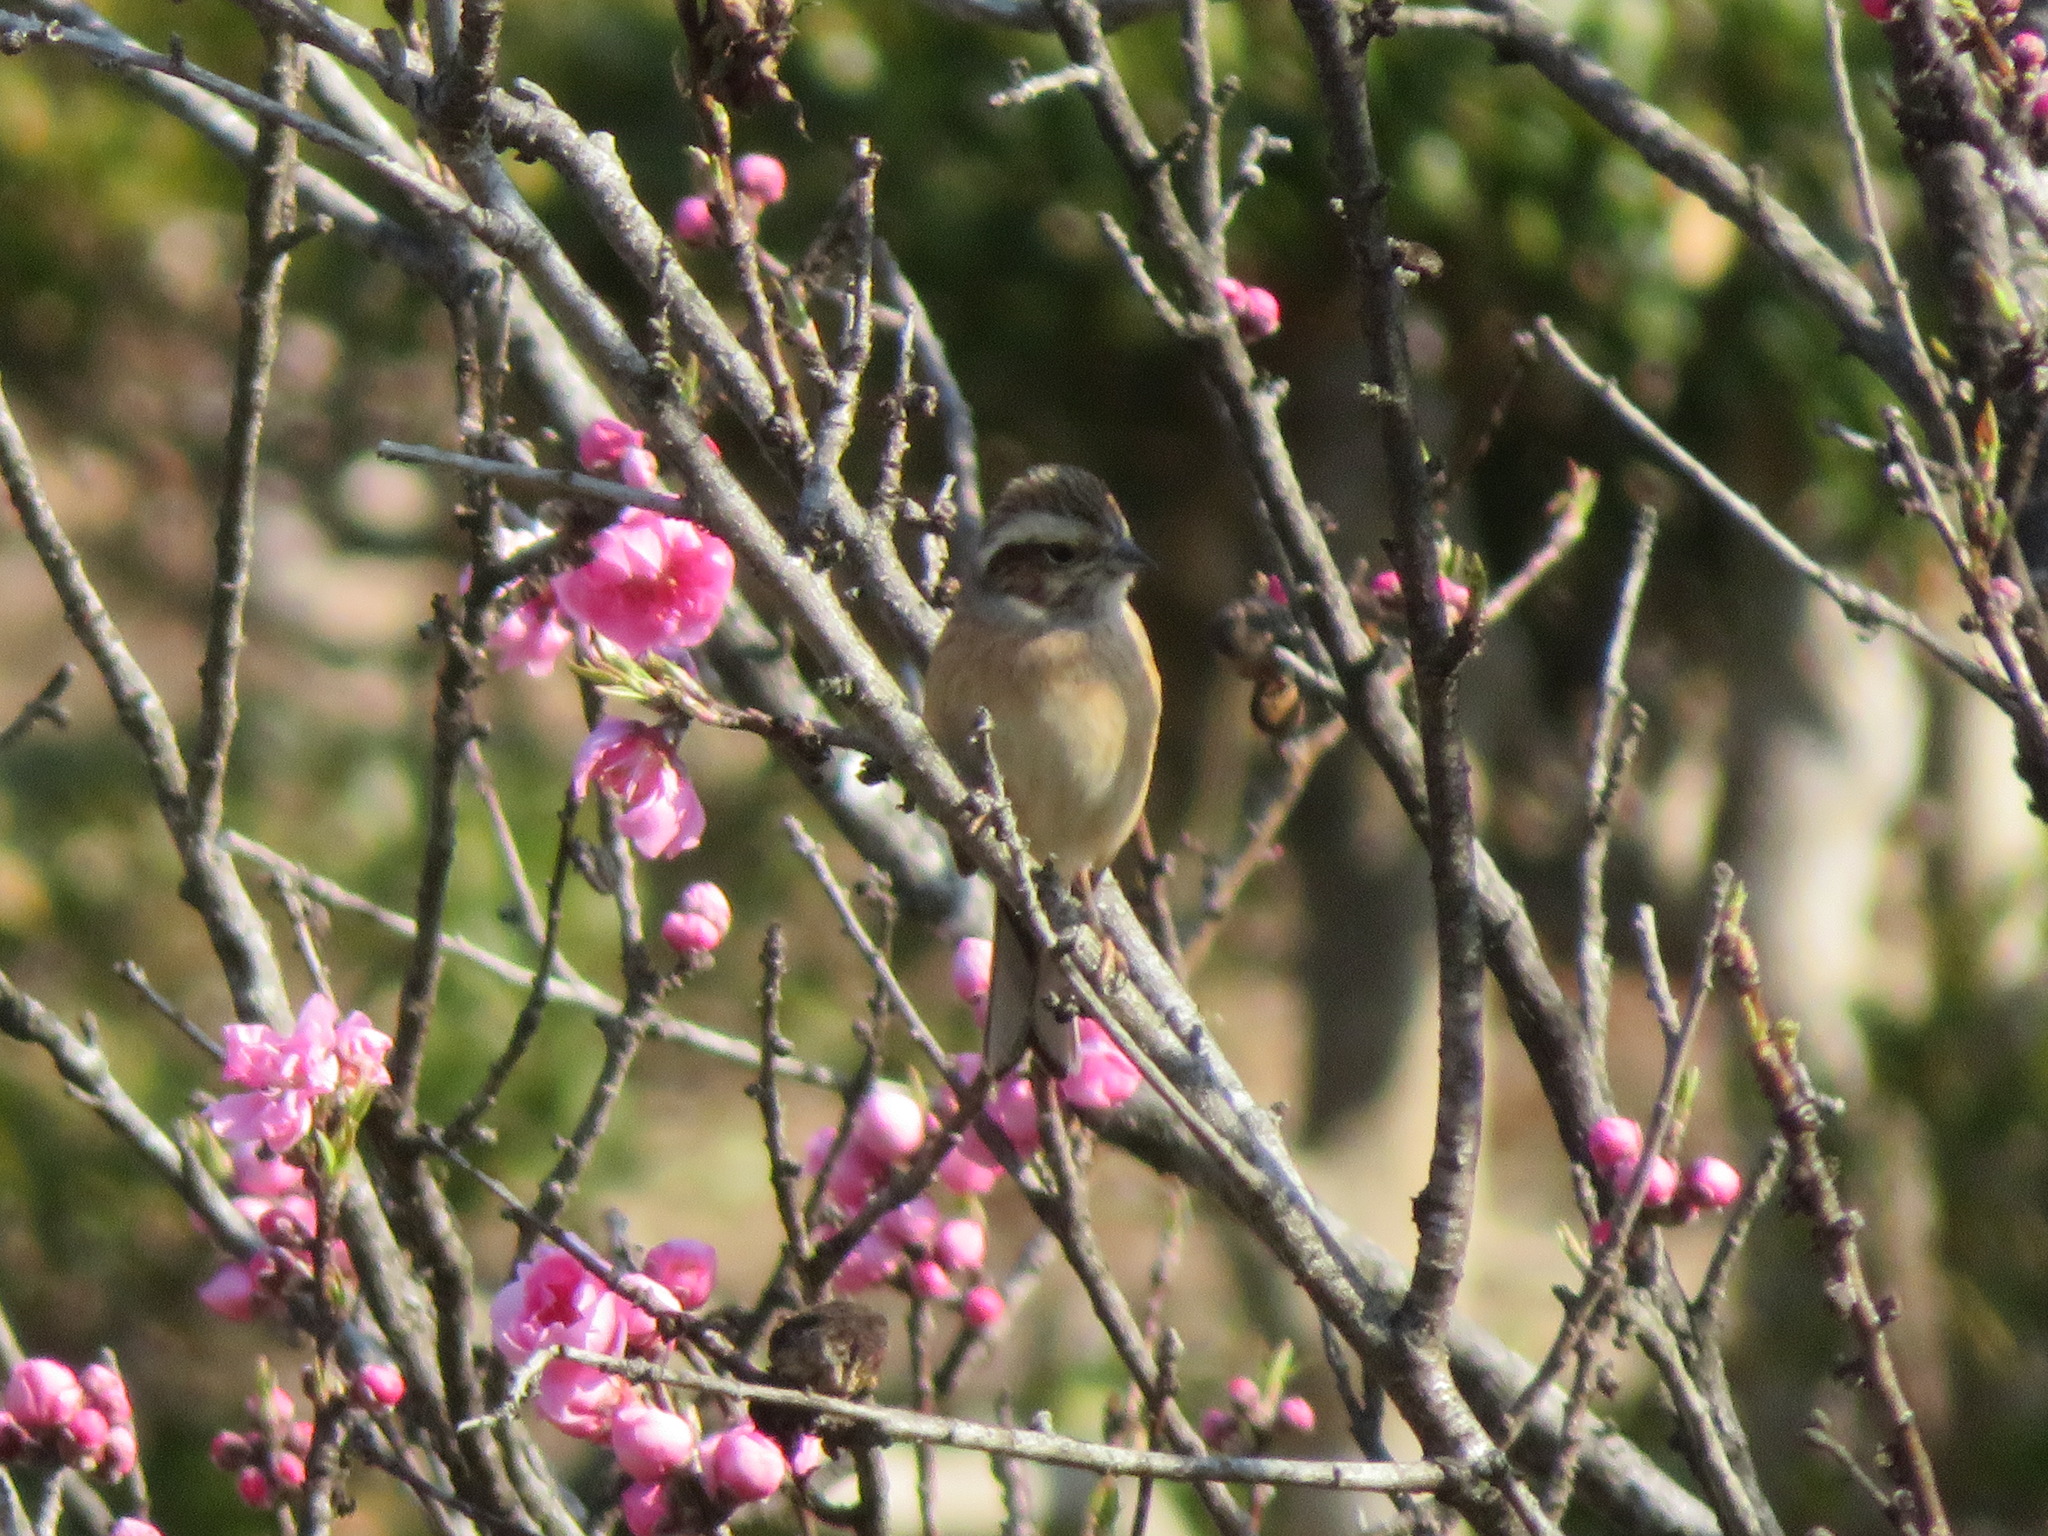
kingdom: Animalia
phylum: Chordata
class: Aves
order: Passeriformes
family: Emberizidae
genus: Emberiza
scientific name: Emberiza cioides
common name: Meadow bunting
